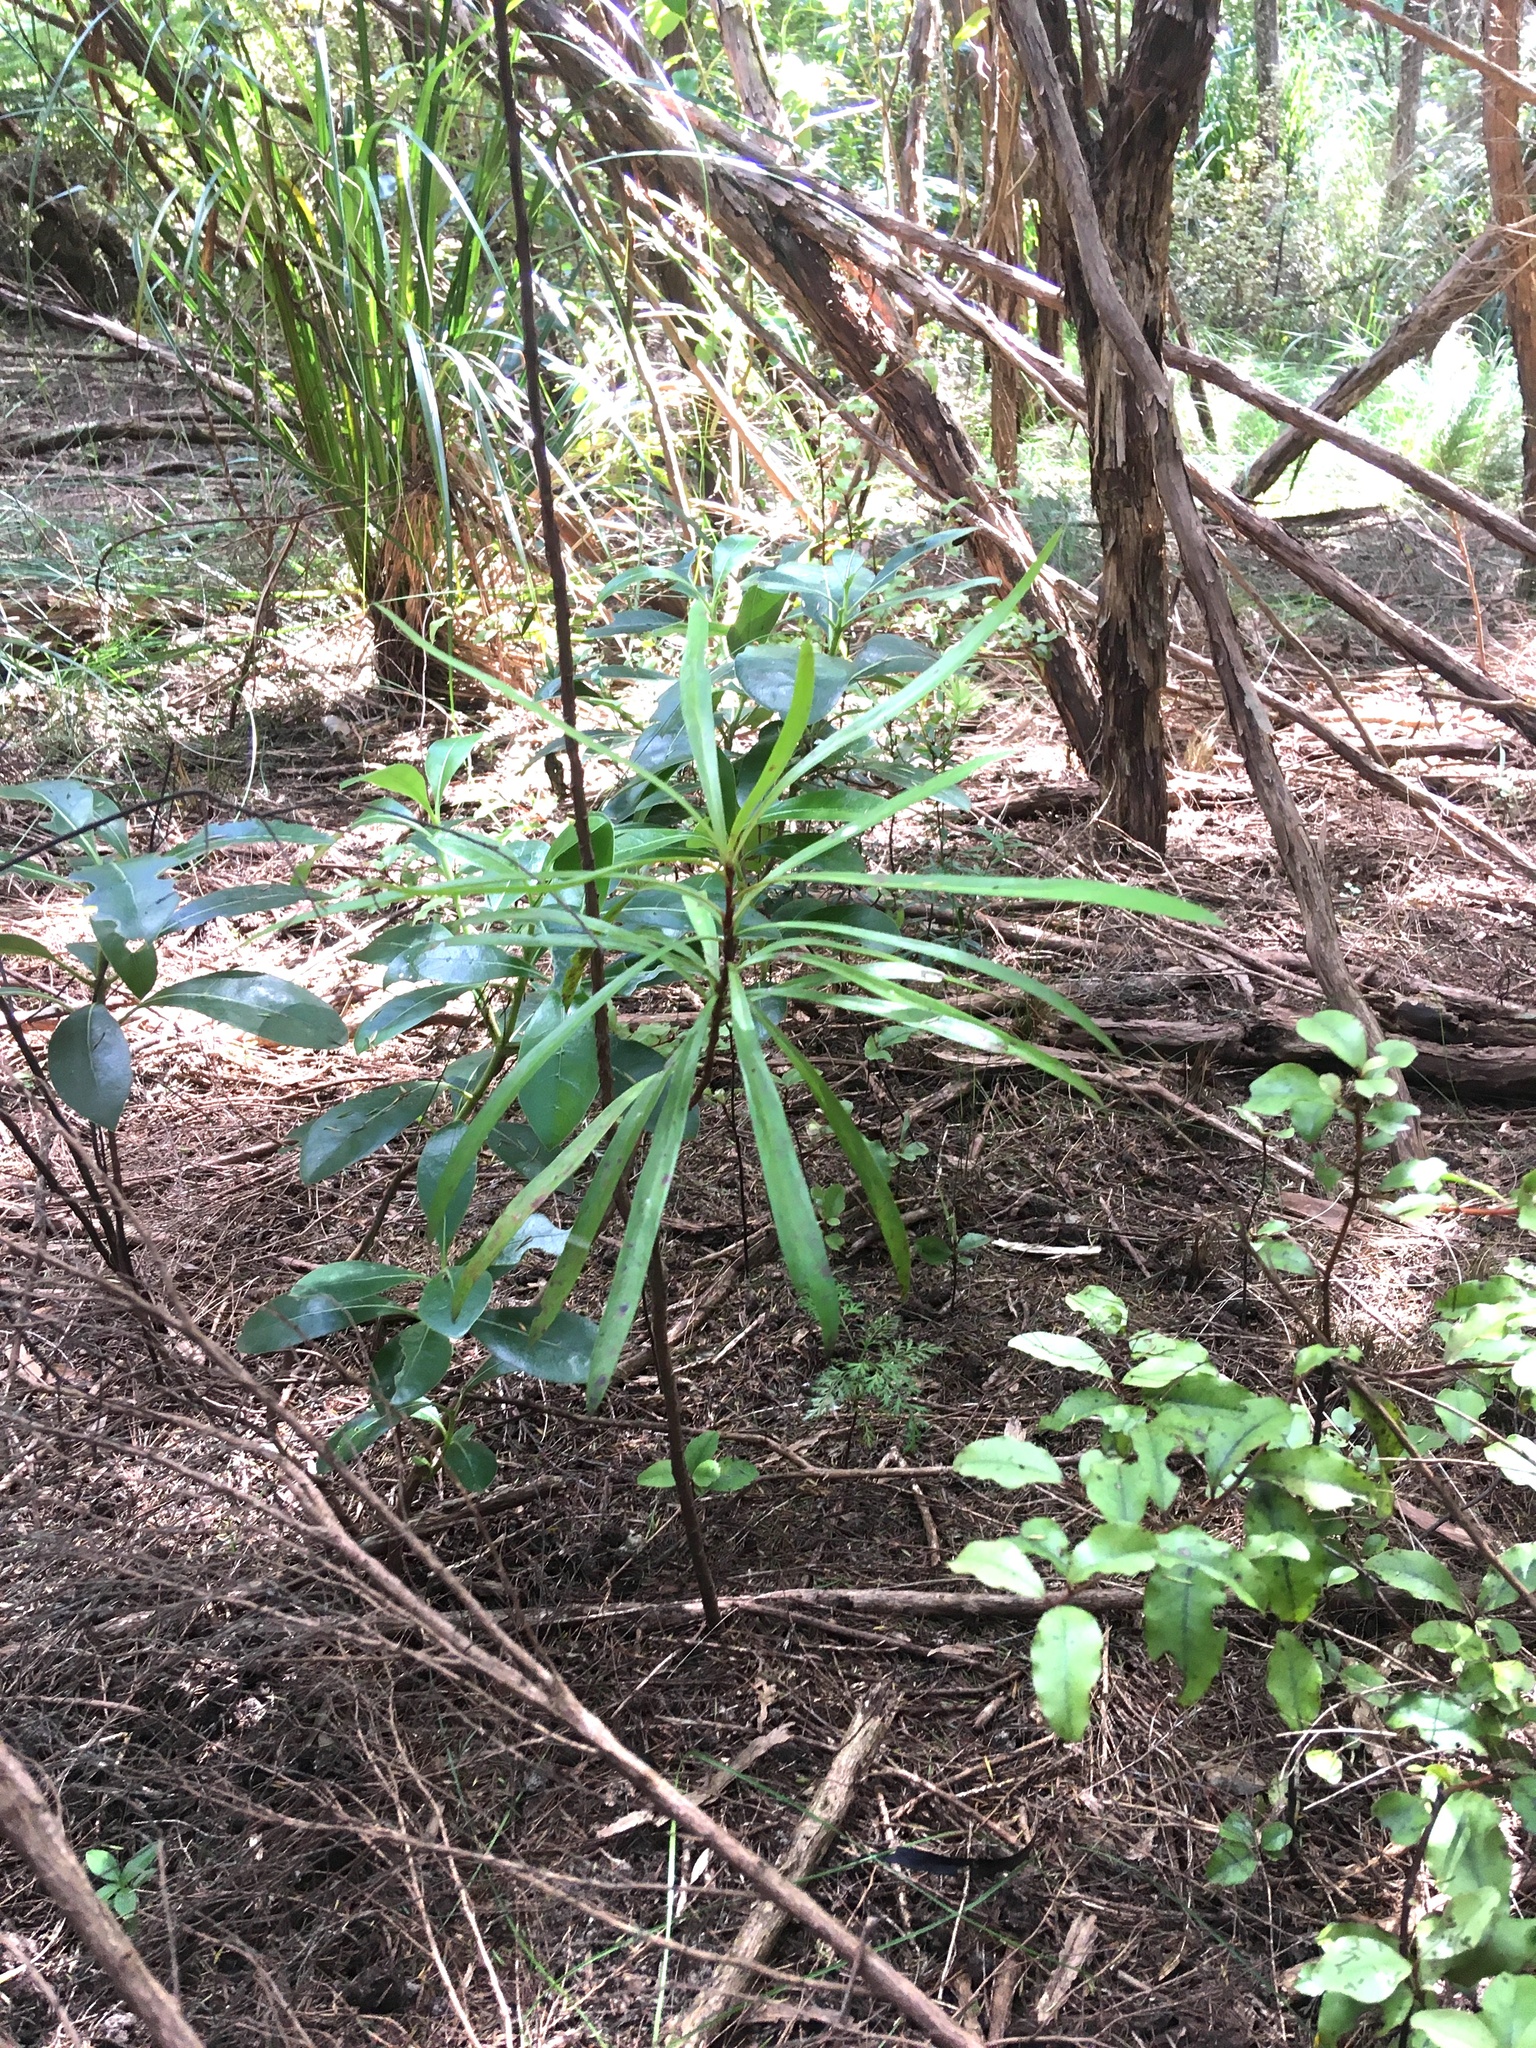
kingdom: Plantae
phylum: Tracheophyta
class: Magnoliopsida
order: Proteales
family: Proteaceae
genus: Toronia
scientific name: Toronia toru
